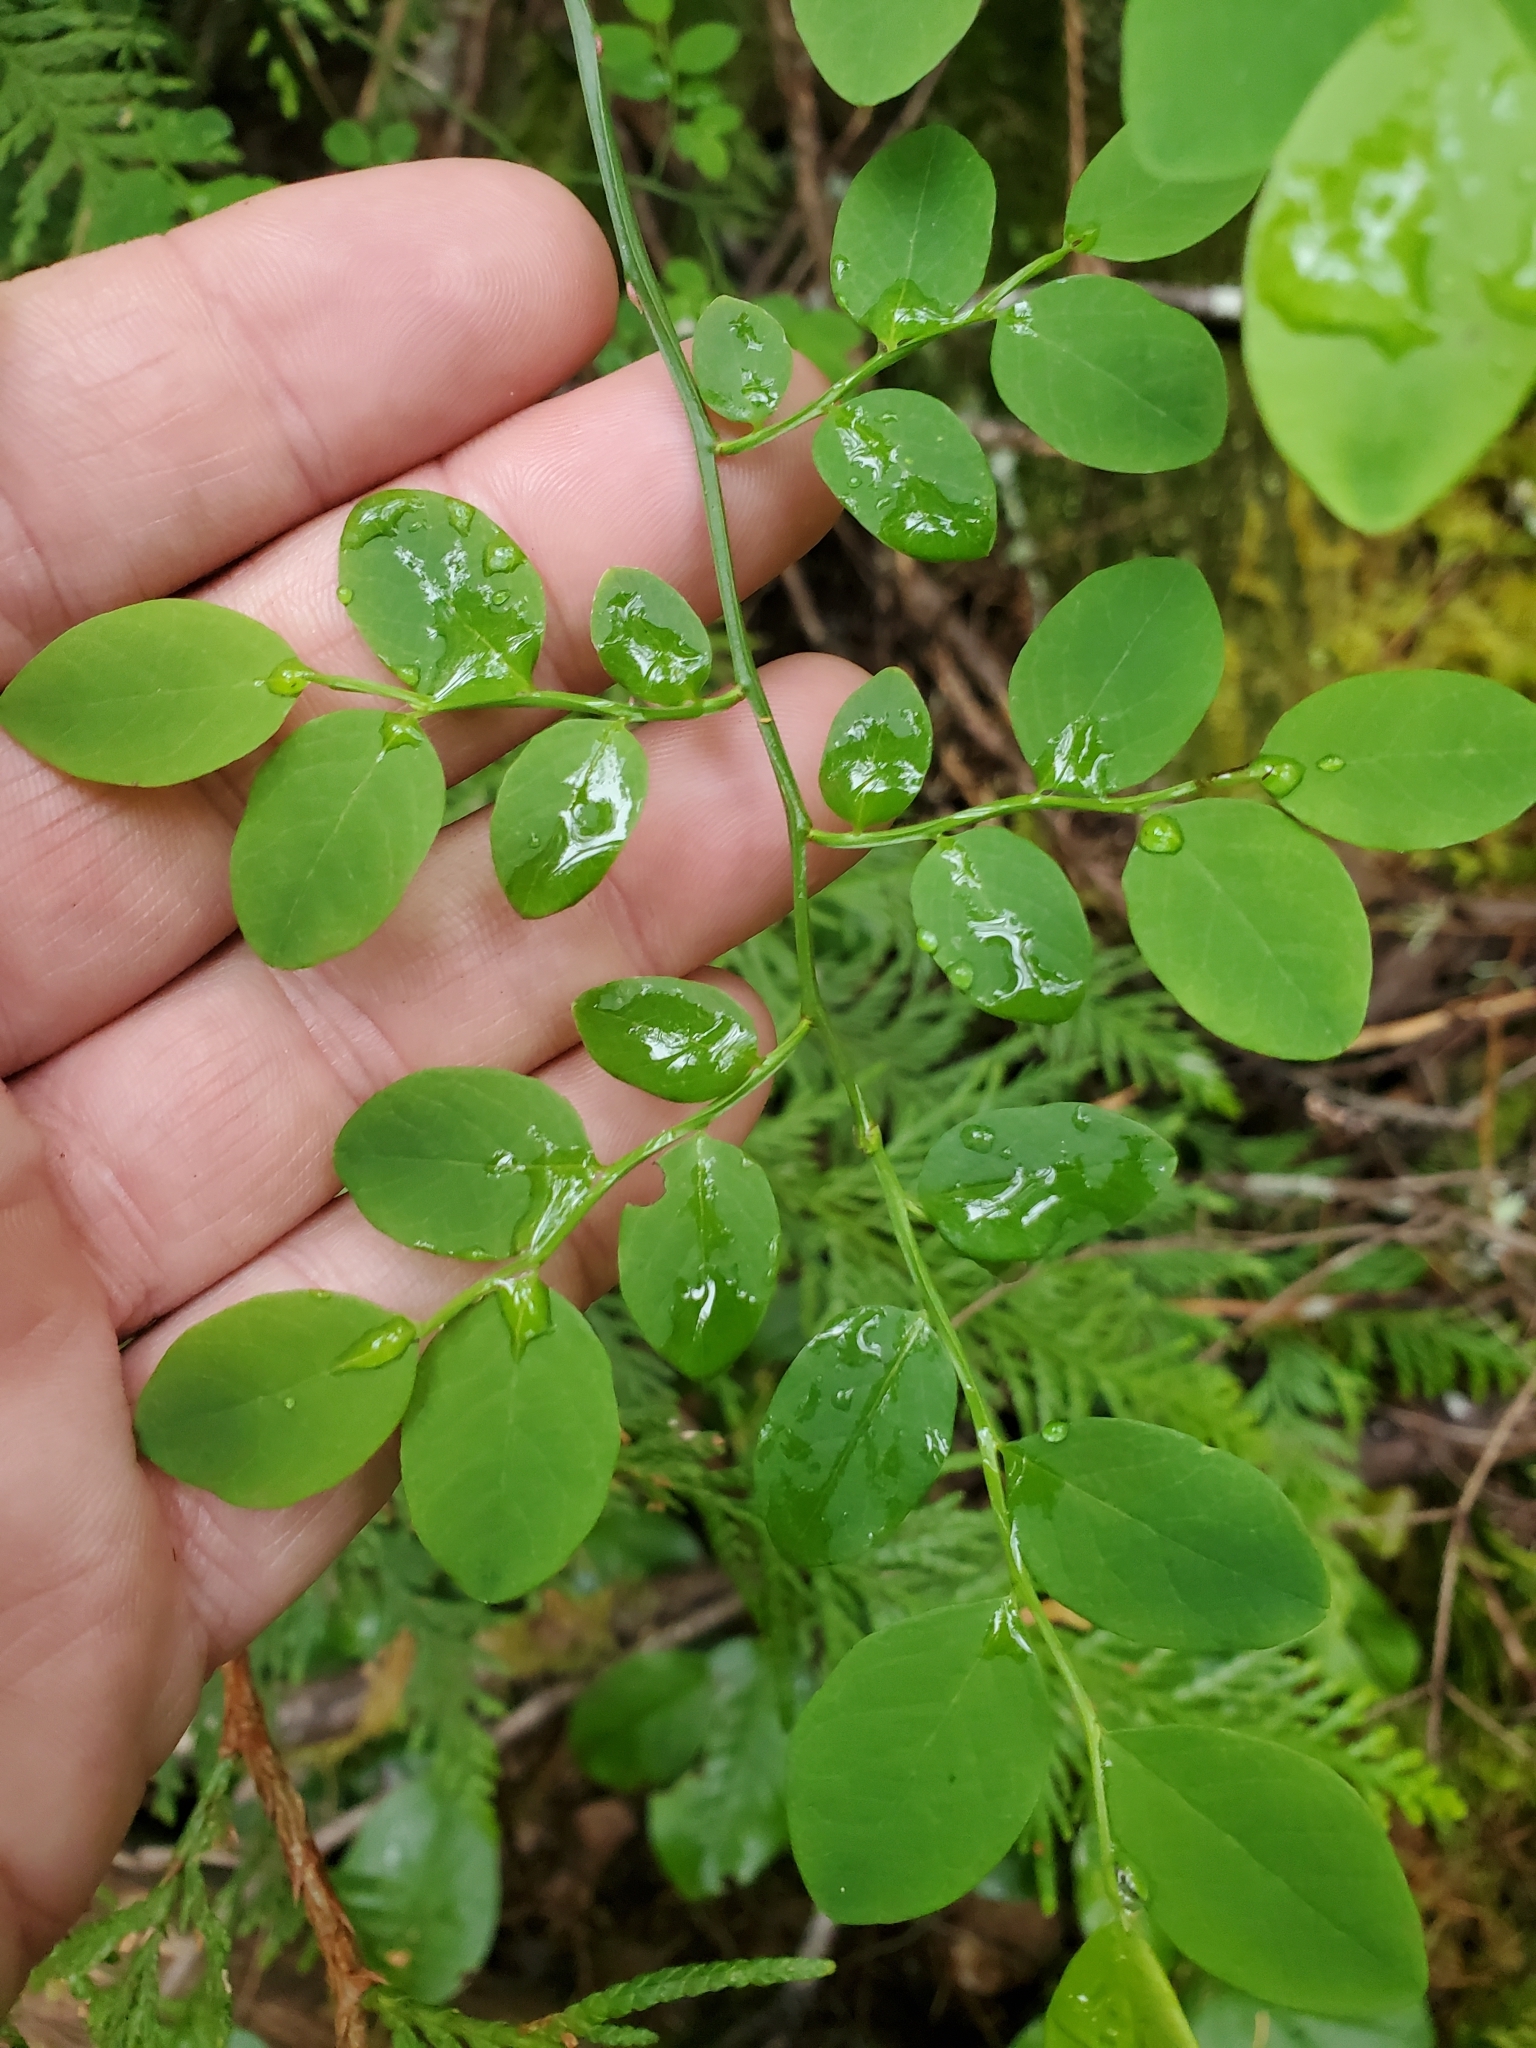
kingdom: Plantae
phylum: Tracheophyta
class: Magnoliopsida
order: Ericales
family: Ericaceae
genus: Vaccinium
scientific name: Vaccinium parvifolium
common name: Red-huckleberry
